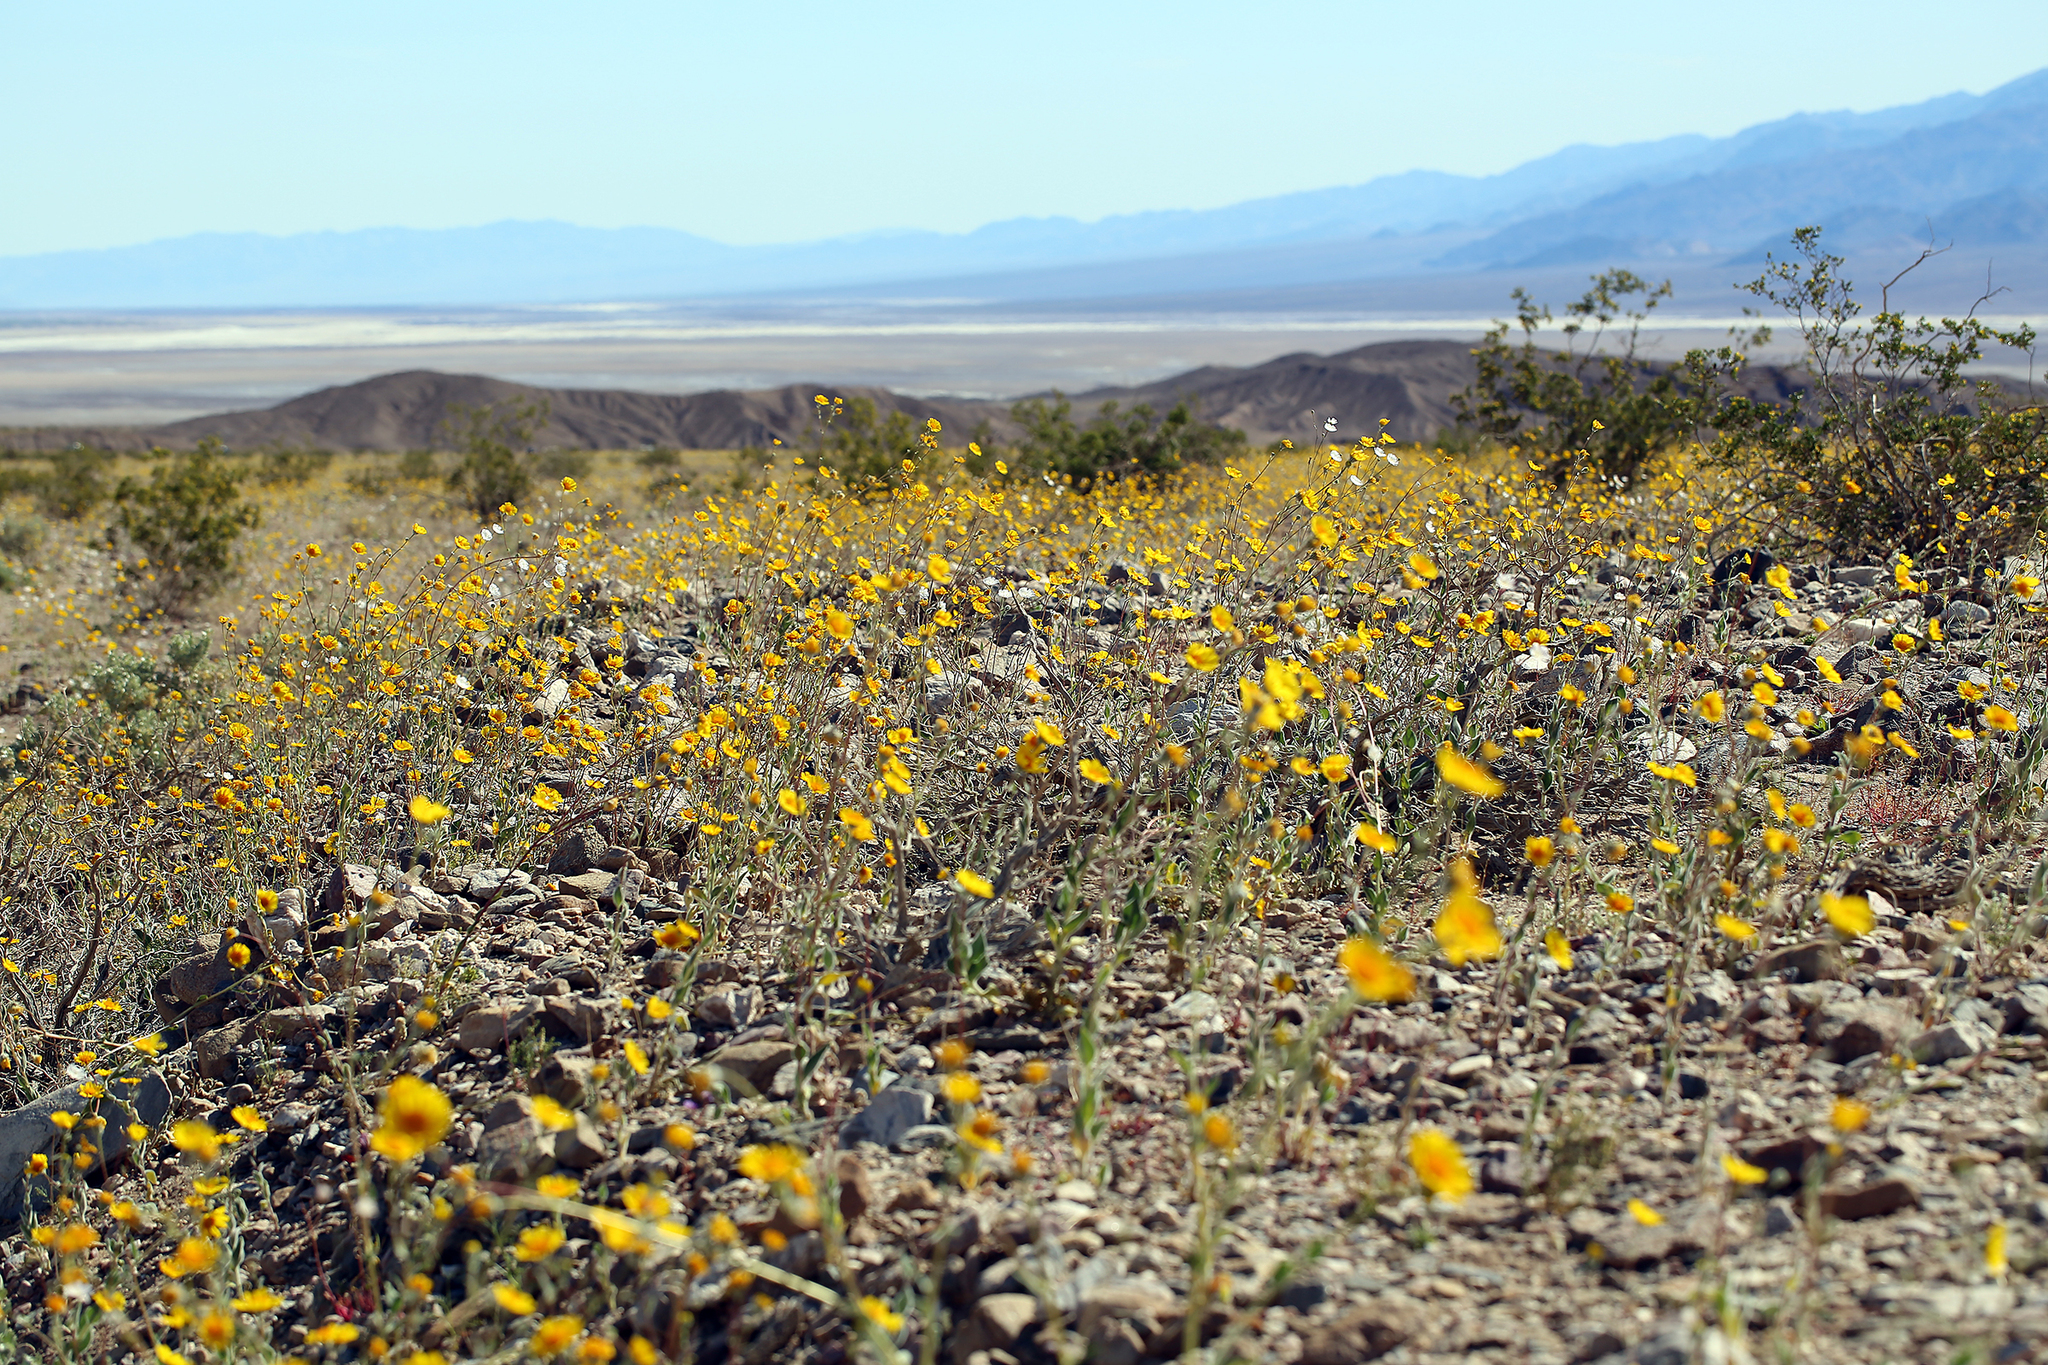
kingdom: Plantae
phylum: Tracheophyta
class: Magnoliopsida
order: Asterales
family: Asteraceae
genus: Geraea
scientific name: Geraea canescens
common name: Desert-gold
